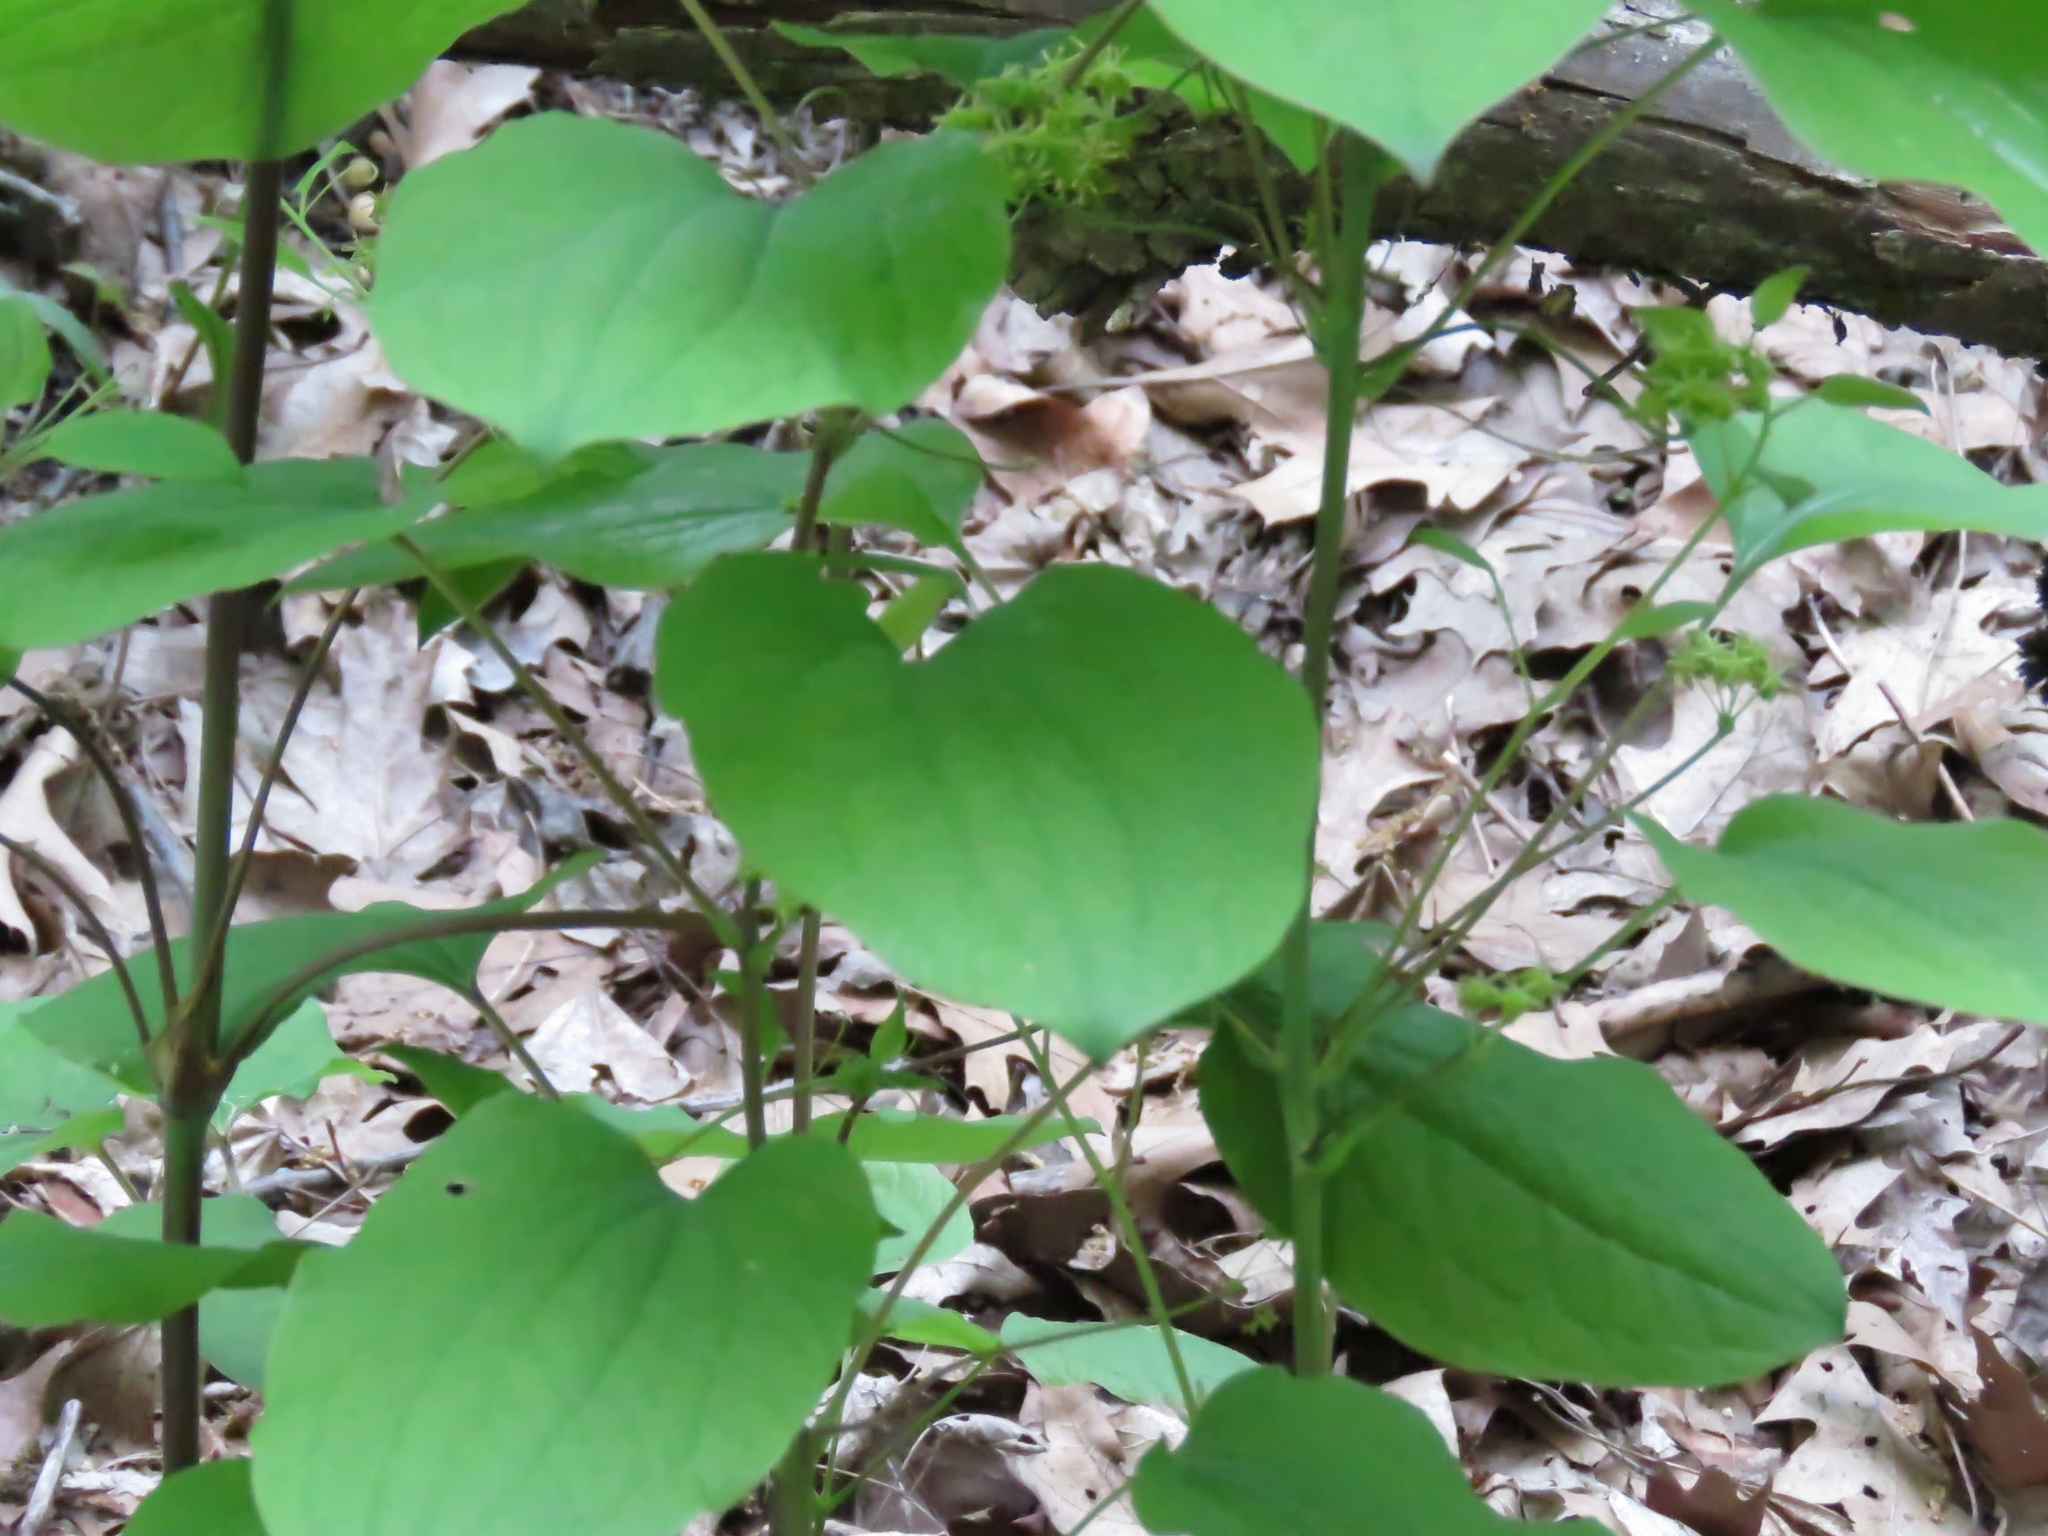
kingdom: Plantae
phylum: Tracheophyta
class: Liliopsida
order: Liliales
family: Smilacaceae
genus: Smilax
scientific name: Smilax illinoensis
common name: Illinois carrionflower
